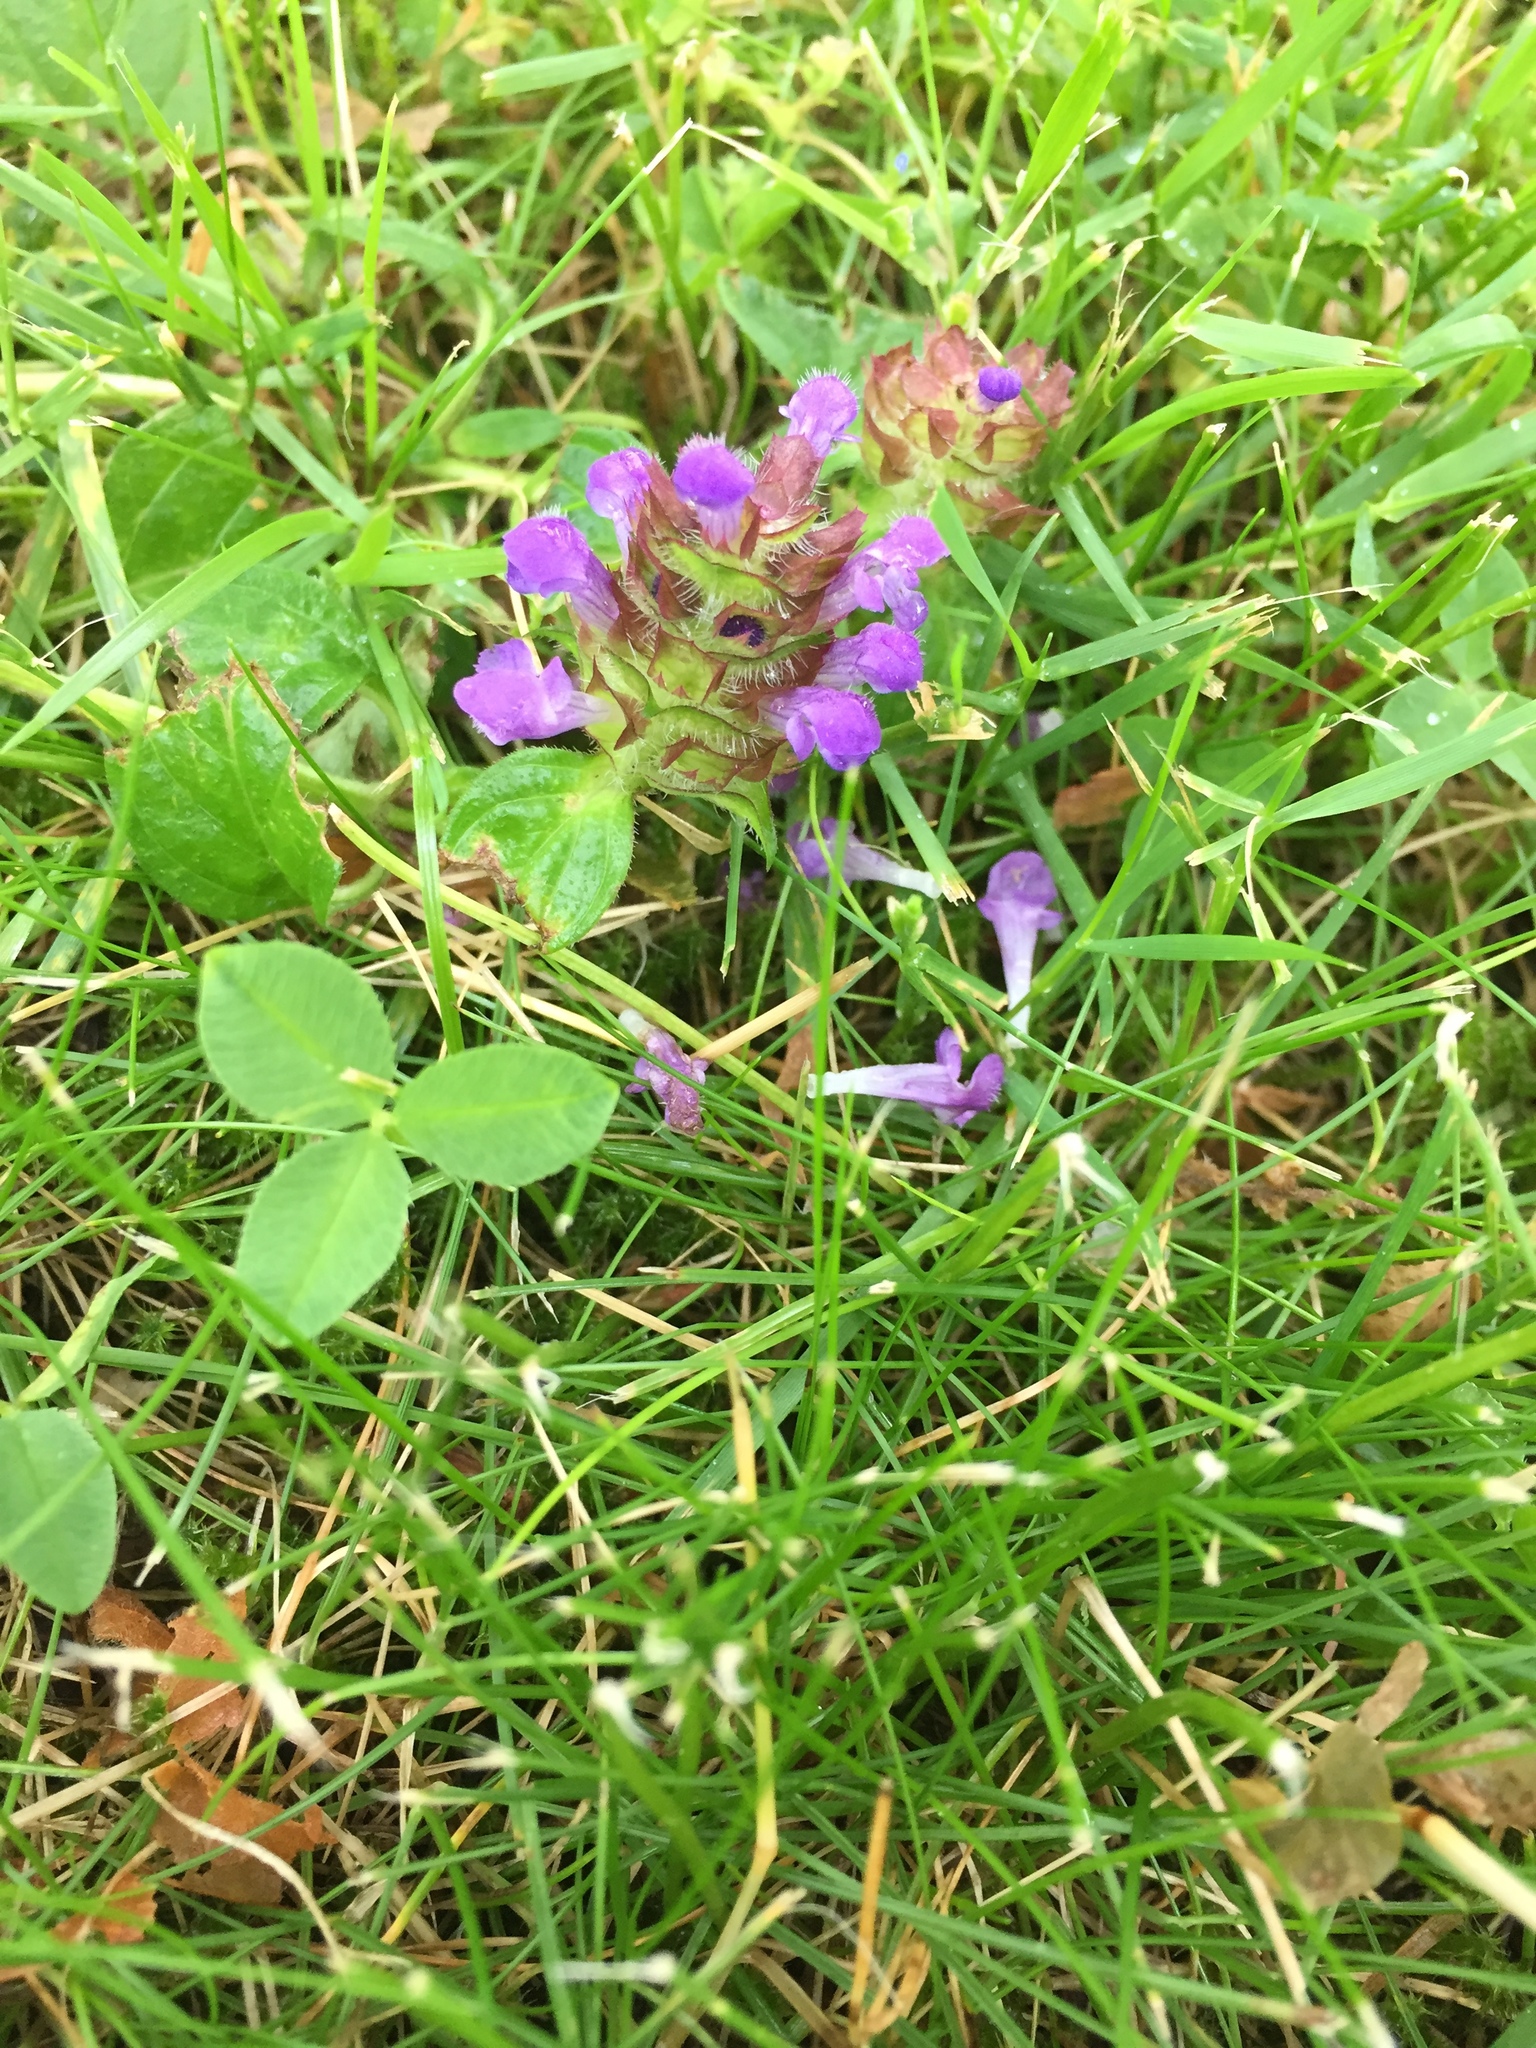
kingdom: Plantae
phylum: Tracheophyta
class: Magnoliopsida
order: Lamiales
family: Lamiaceae
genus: Prunella
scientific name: Prunella vulgaris
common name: Heal-all
